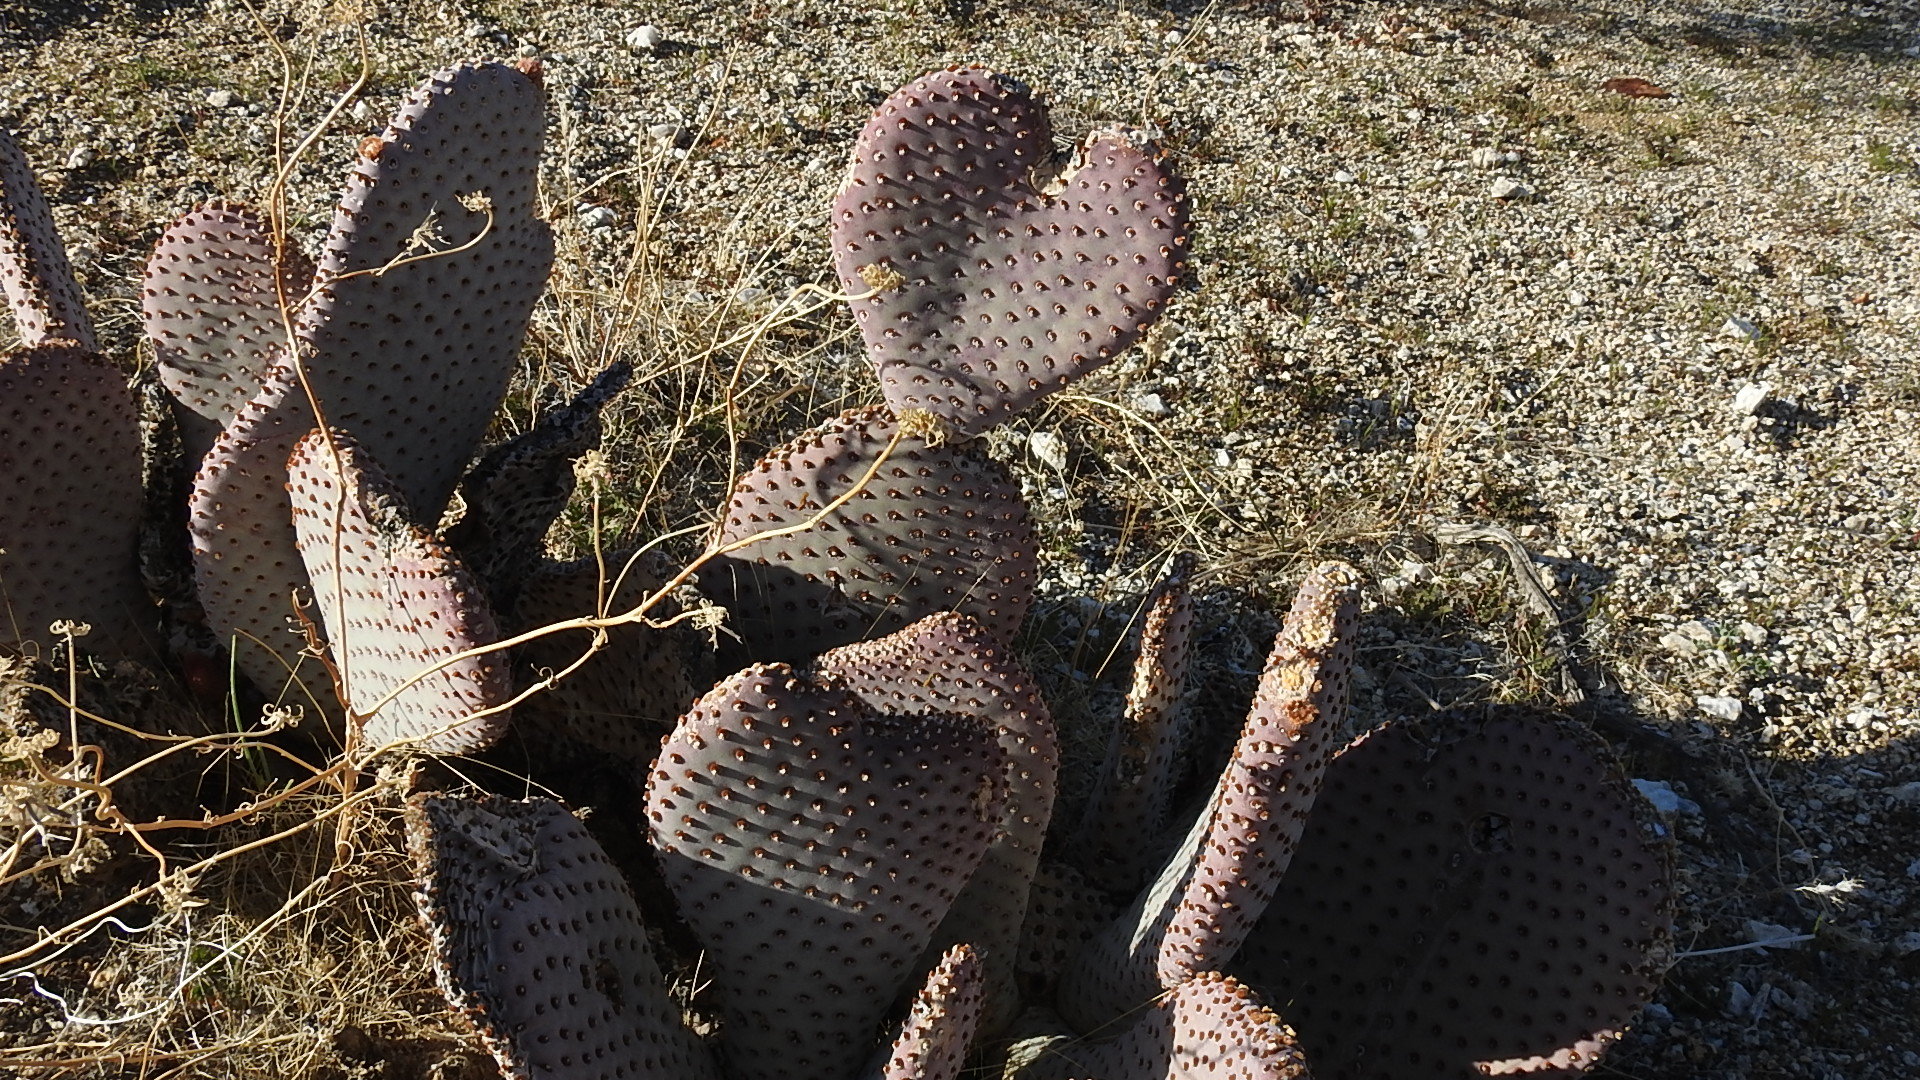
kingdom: Plantae
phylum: Tracheophyta
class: Magnoliopsida
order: Caryophyllales
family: Cactaceae
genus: Opuntia
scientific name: Opuntia basilaris
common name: Beavertail prickly-pear
